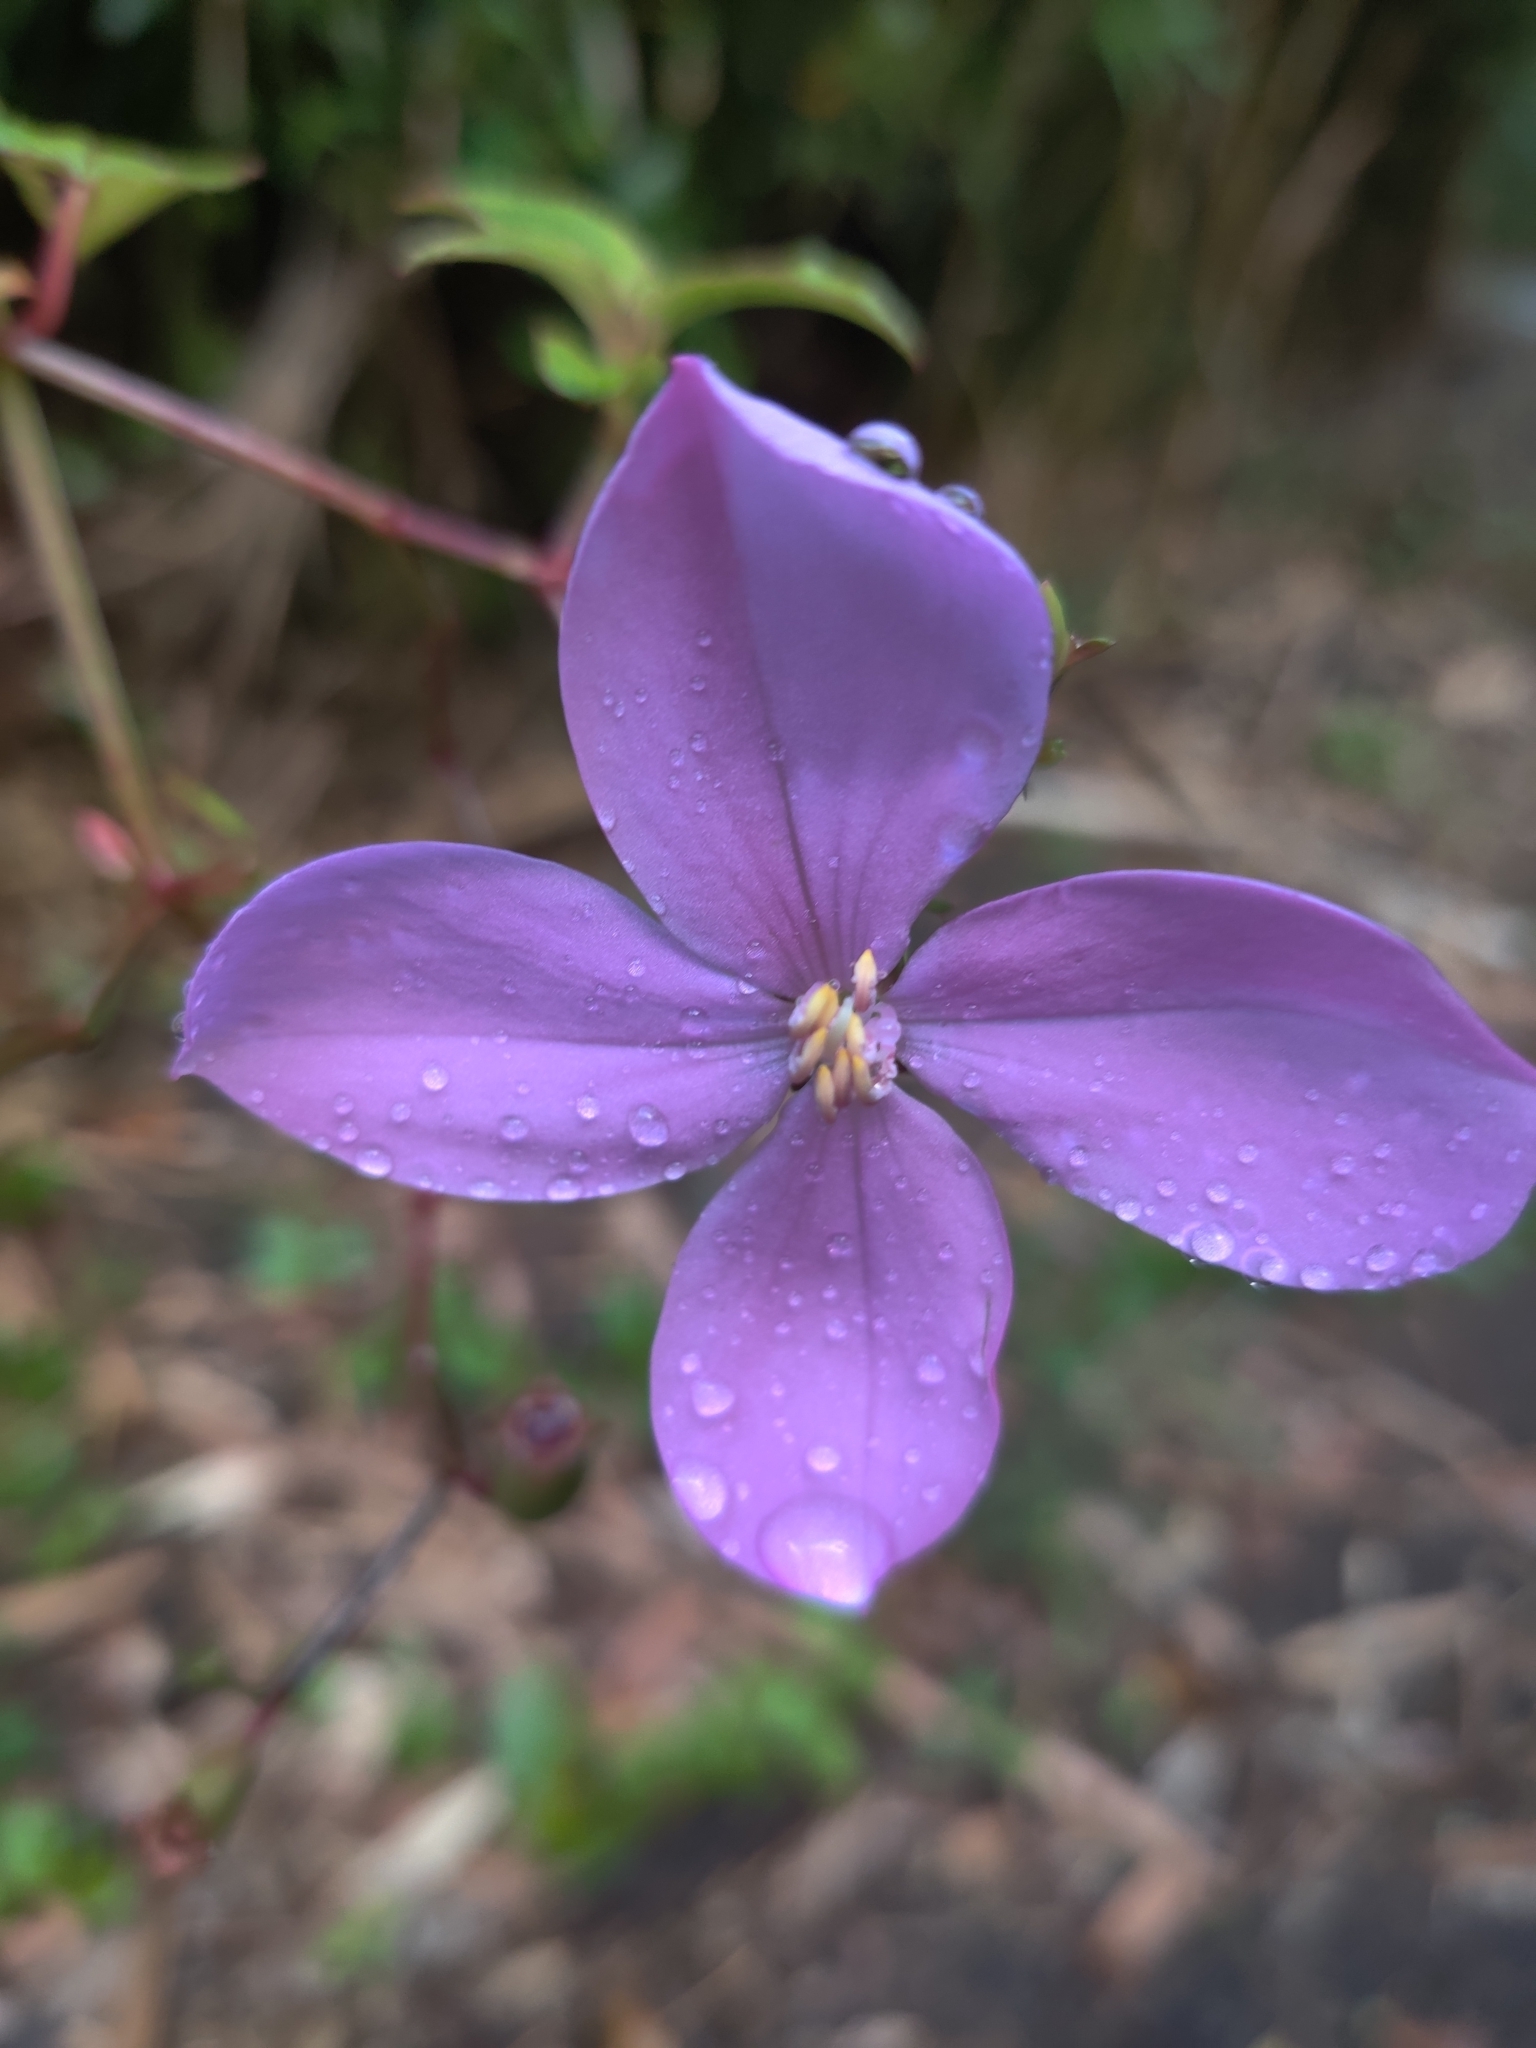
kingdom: Plantae
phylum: Tracheophyta
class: Magnoliopsida
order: Myrtales
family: Melastomataceae
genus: Arthrostemma
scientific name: Arthrostemma ciliatum
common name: Everblooming eavender
